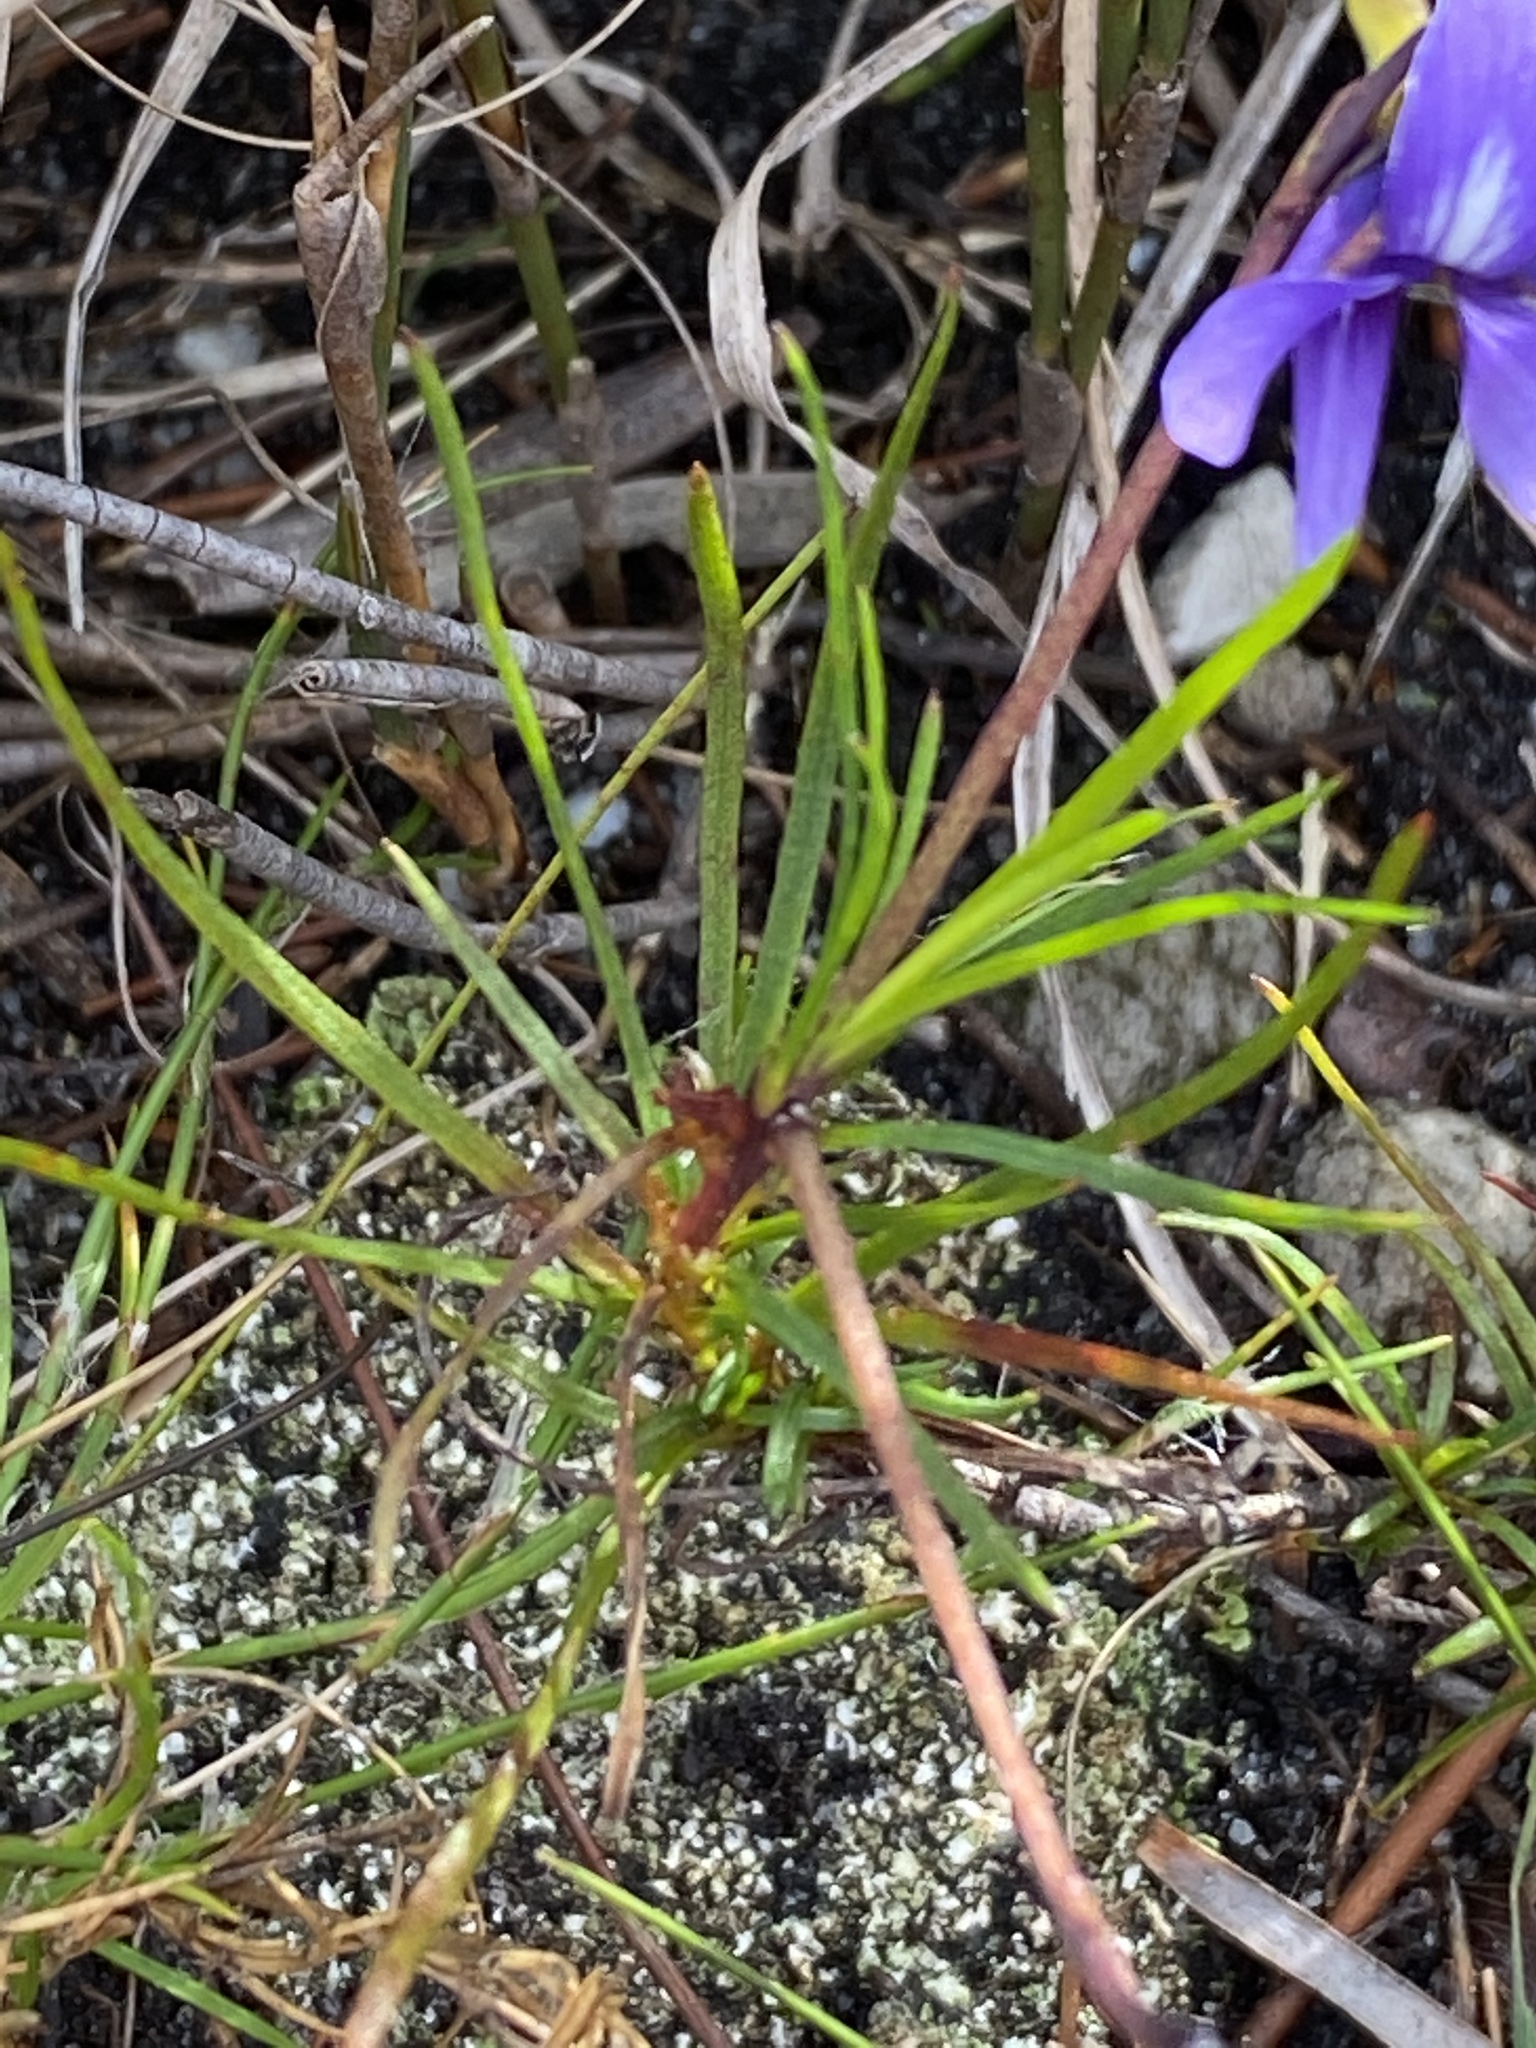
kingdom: Plantae
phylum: Tracheophyta
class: Magnoliopsida
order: Malpighiales
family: Violaceae
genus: Viola
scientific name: Viola decumbens
